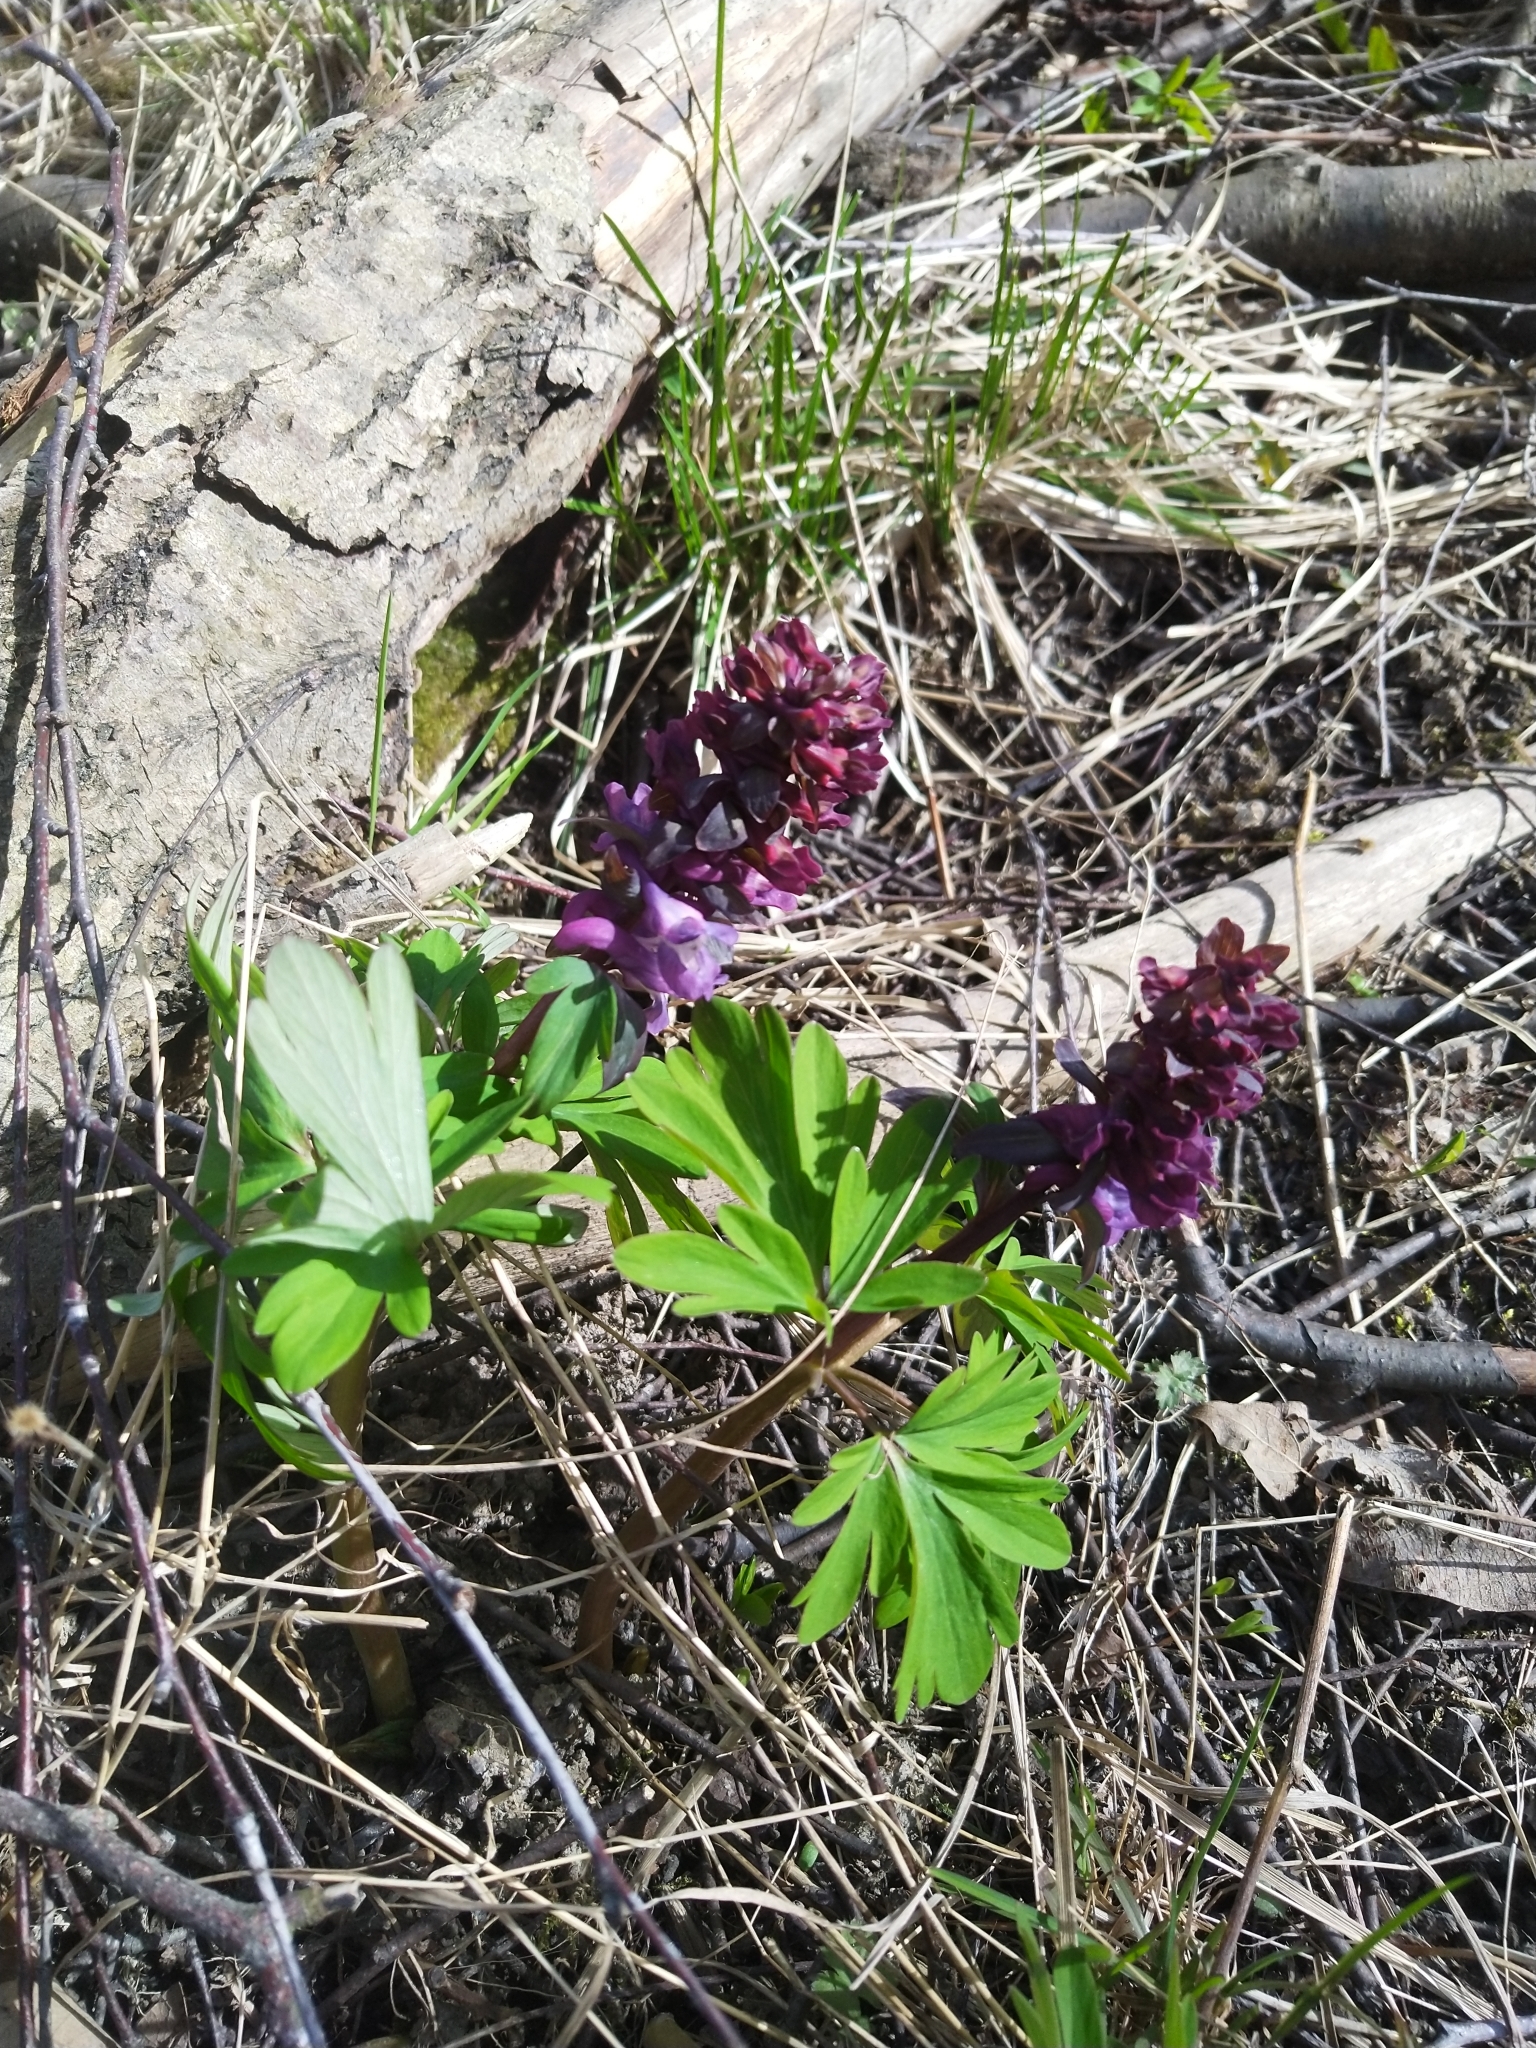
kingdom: Plantae
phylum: Tracheophyta
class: Magnoliopsida
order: Ranunculales
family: Papaveraceae
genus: Corydalis
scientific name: Corydalis solida
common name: Bird-in-a-bush
